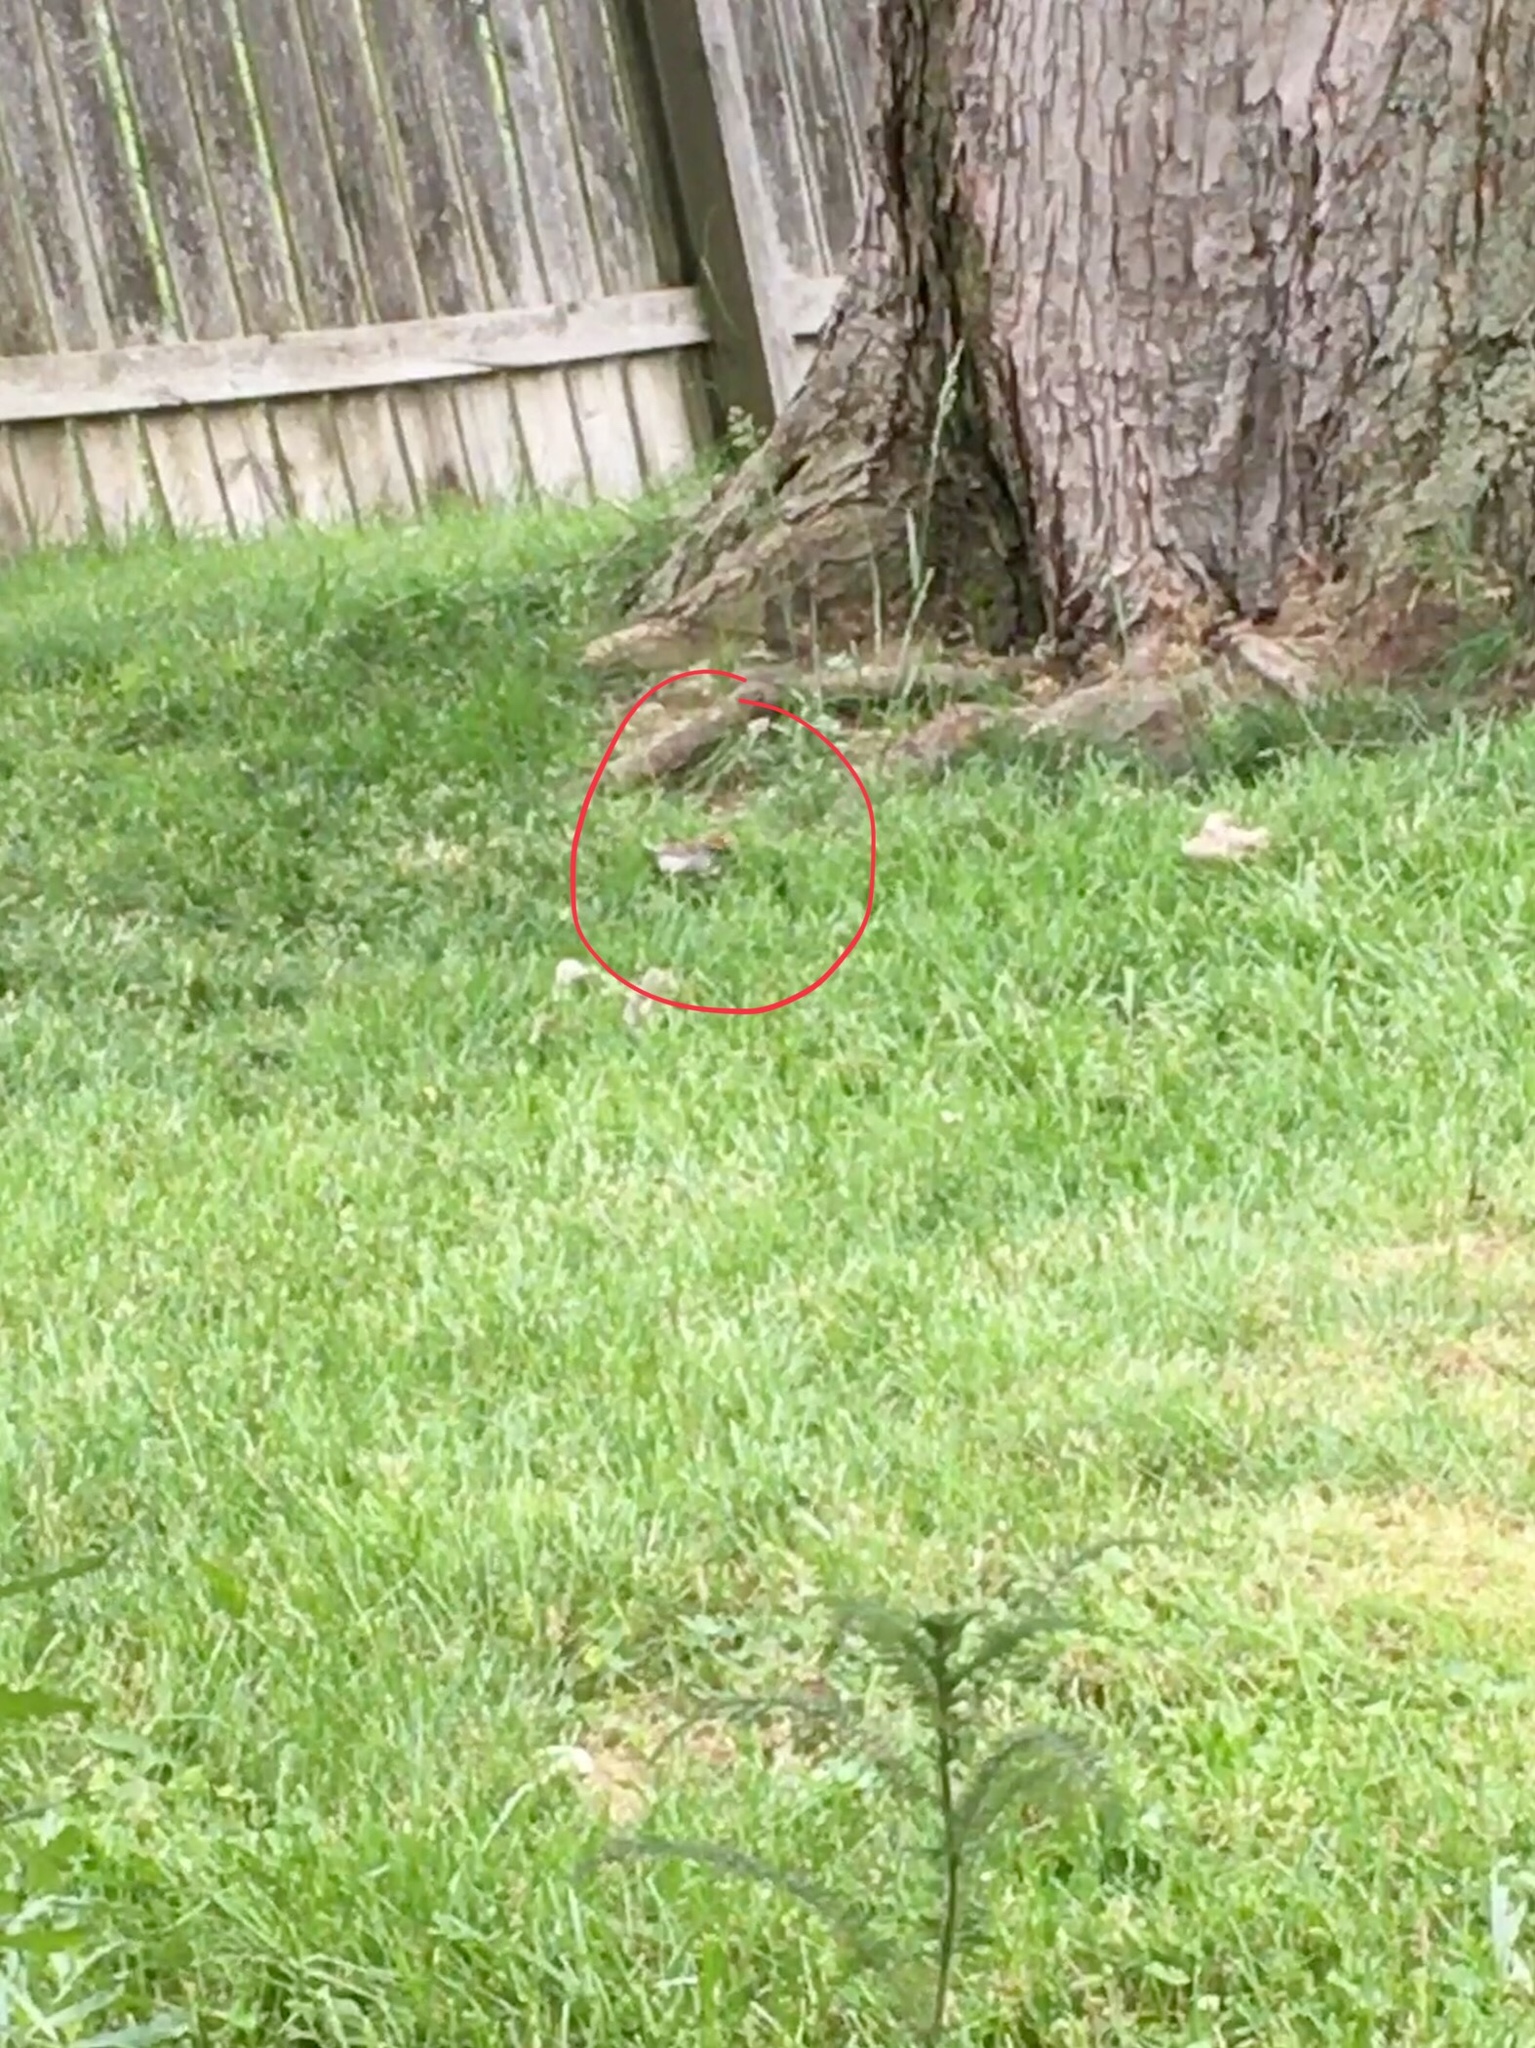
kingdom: Animalia
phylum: Chordata
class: Aves
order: Passeriformes
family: Passerellidae
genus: Spizella
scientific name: Spizella passerina
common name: Chipping sparrow
